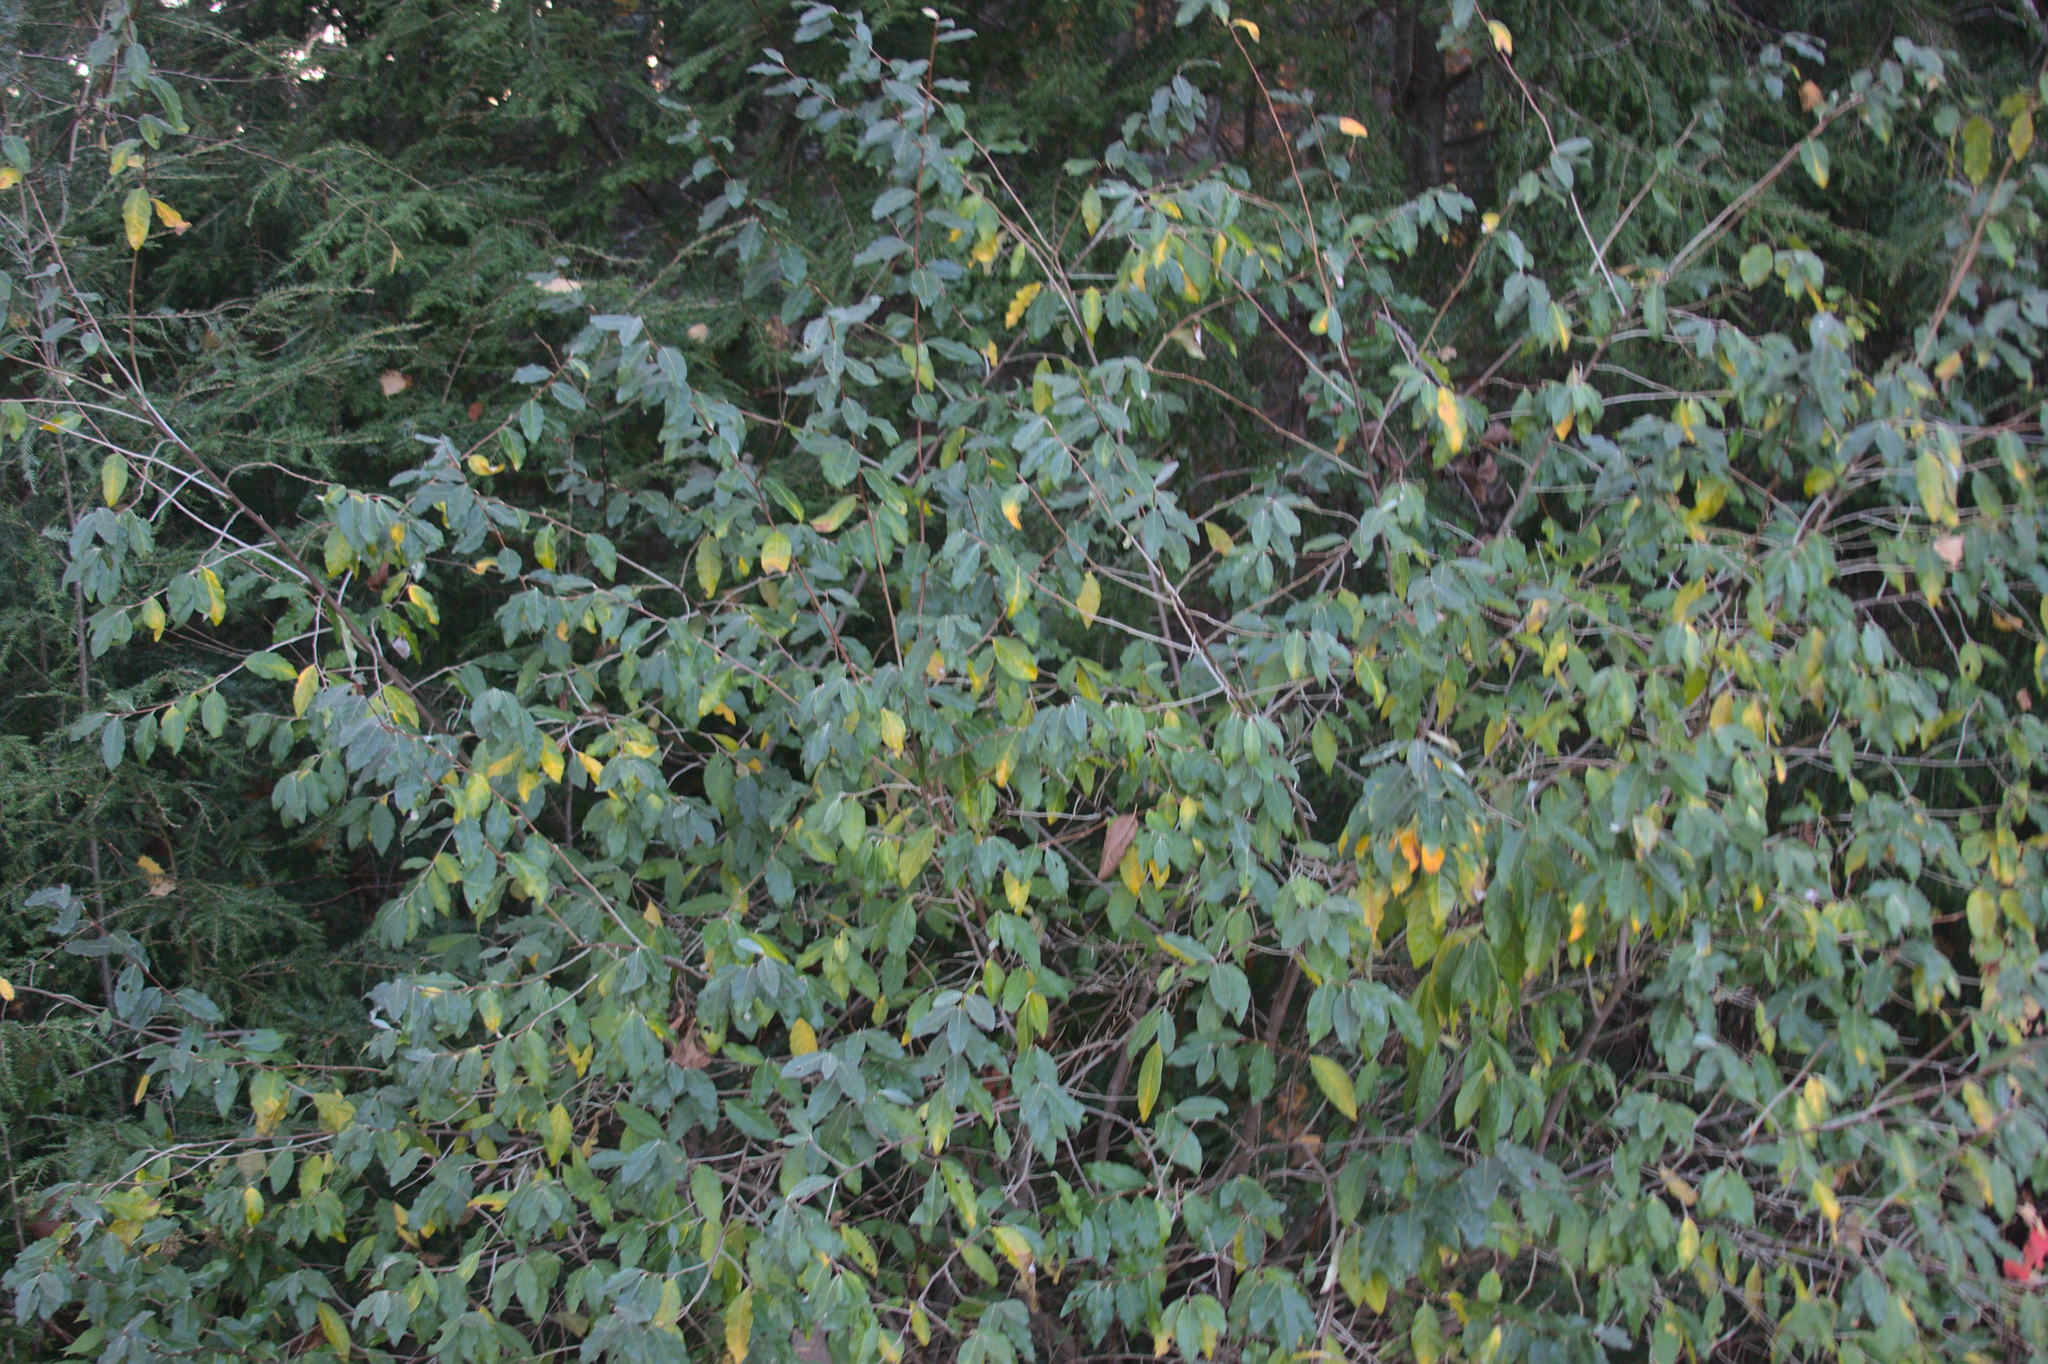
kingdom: Plantae
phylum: Tracheophyta
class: Magnoliopsida
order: Rosales
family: Elaeagnaceae
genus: Elaeagnus
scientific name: Elaeagnus umbellata
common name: Autumn olive
